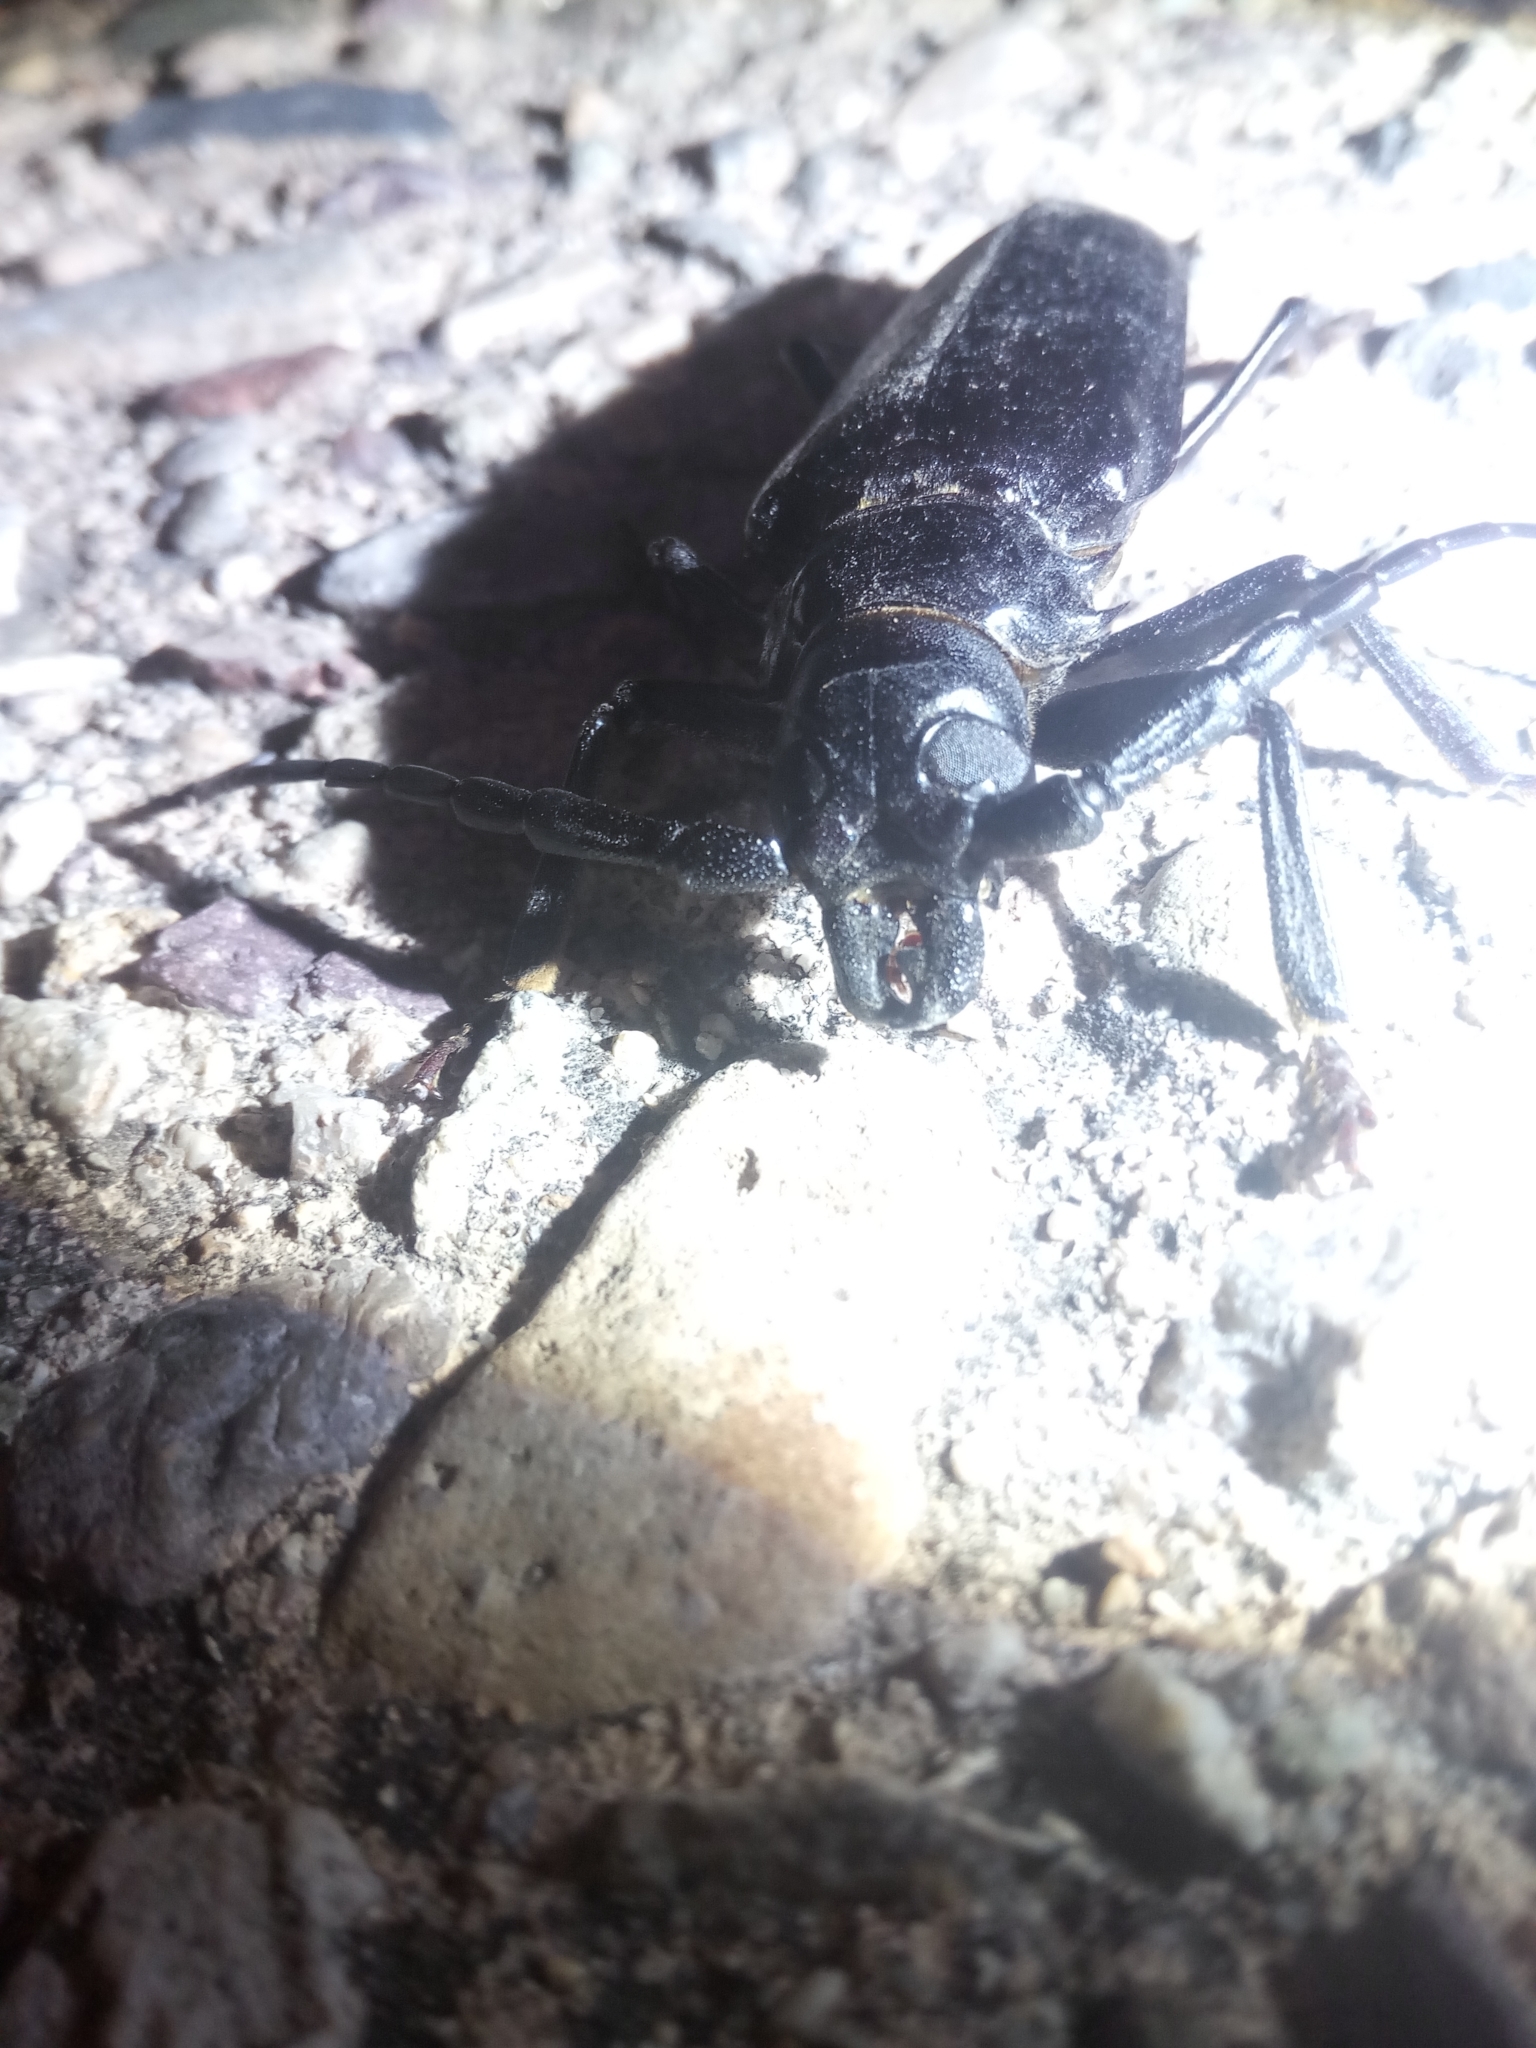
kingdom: Animalia
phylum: Arthropoda
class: Insecta
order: Coleoptera
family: Cerambycidae
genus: Derobrachus
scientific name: Derobrachus hovorei
